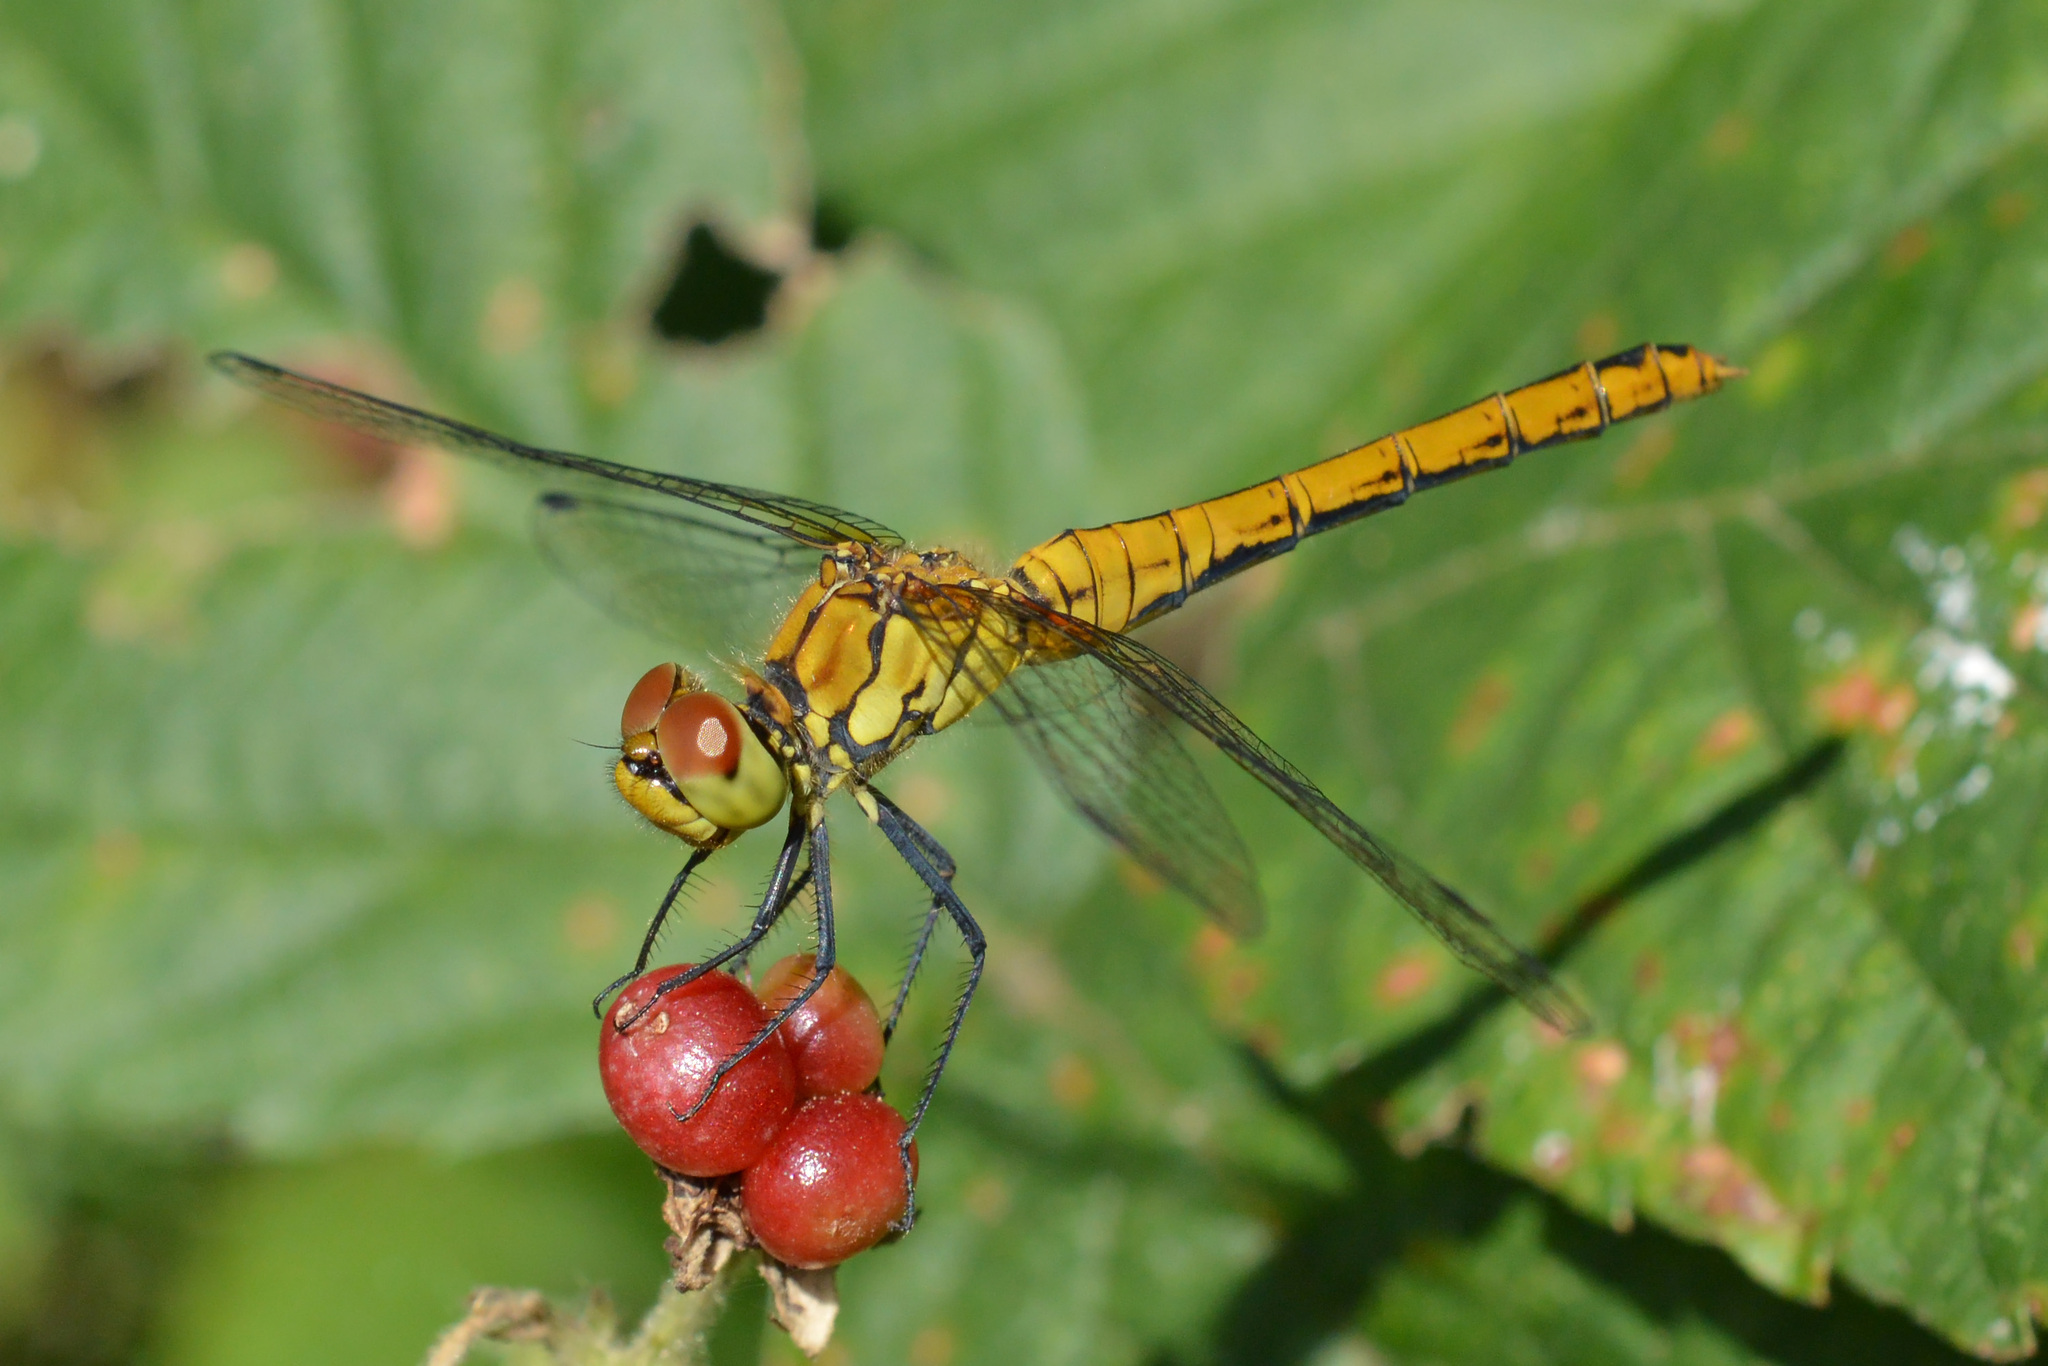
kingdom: Animalia
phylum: Arthropoda
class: Insecta
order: Odonata
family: Libellulidae
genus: Sympetrum
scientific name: Sympetrum sanguineum
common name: Ruddy darter
